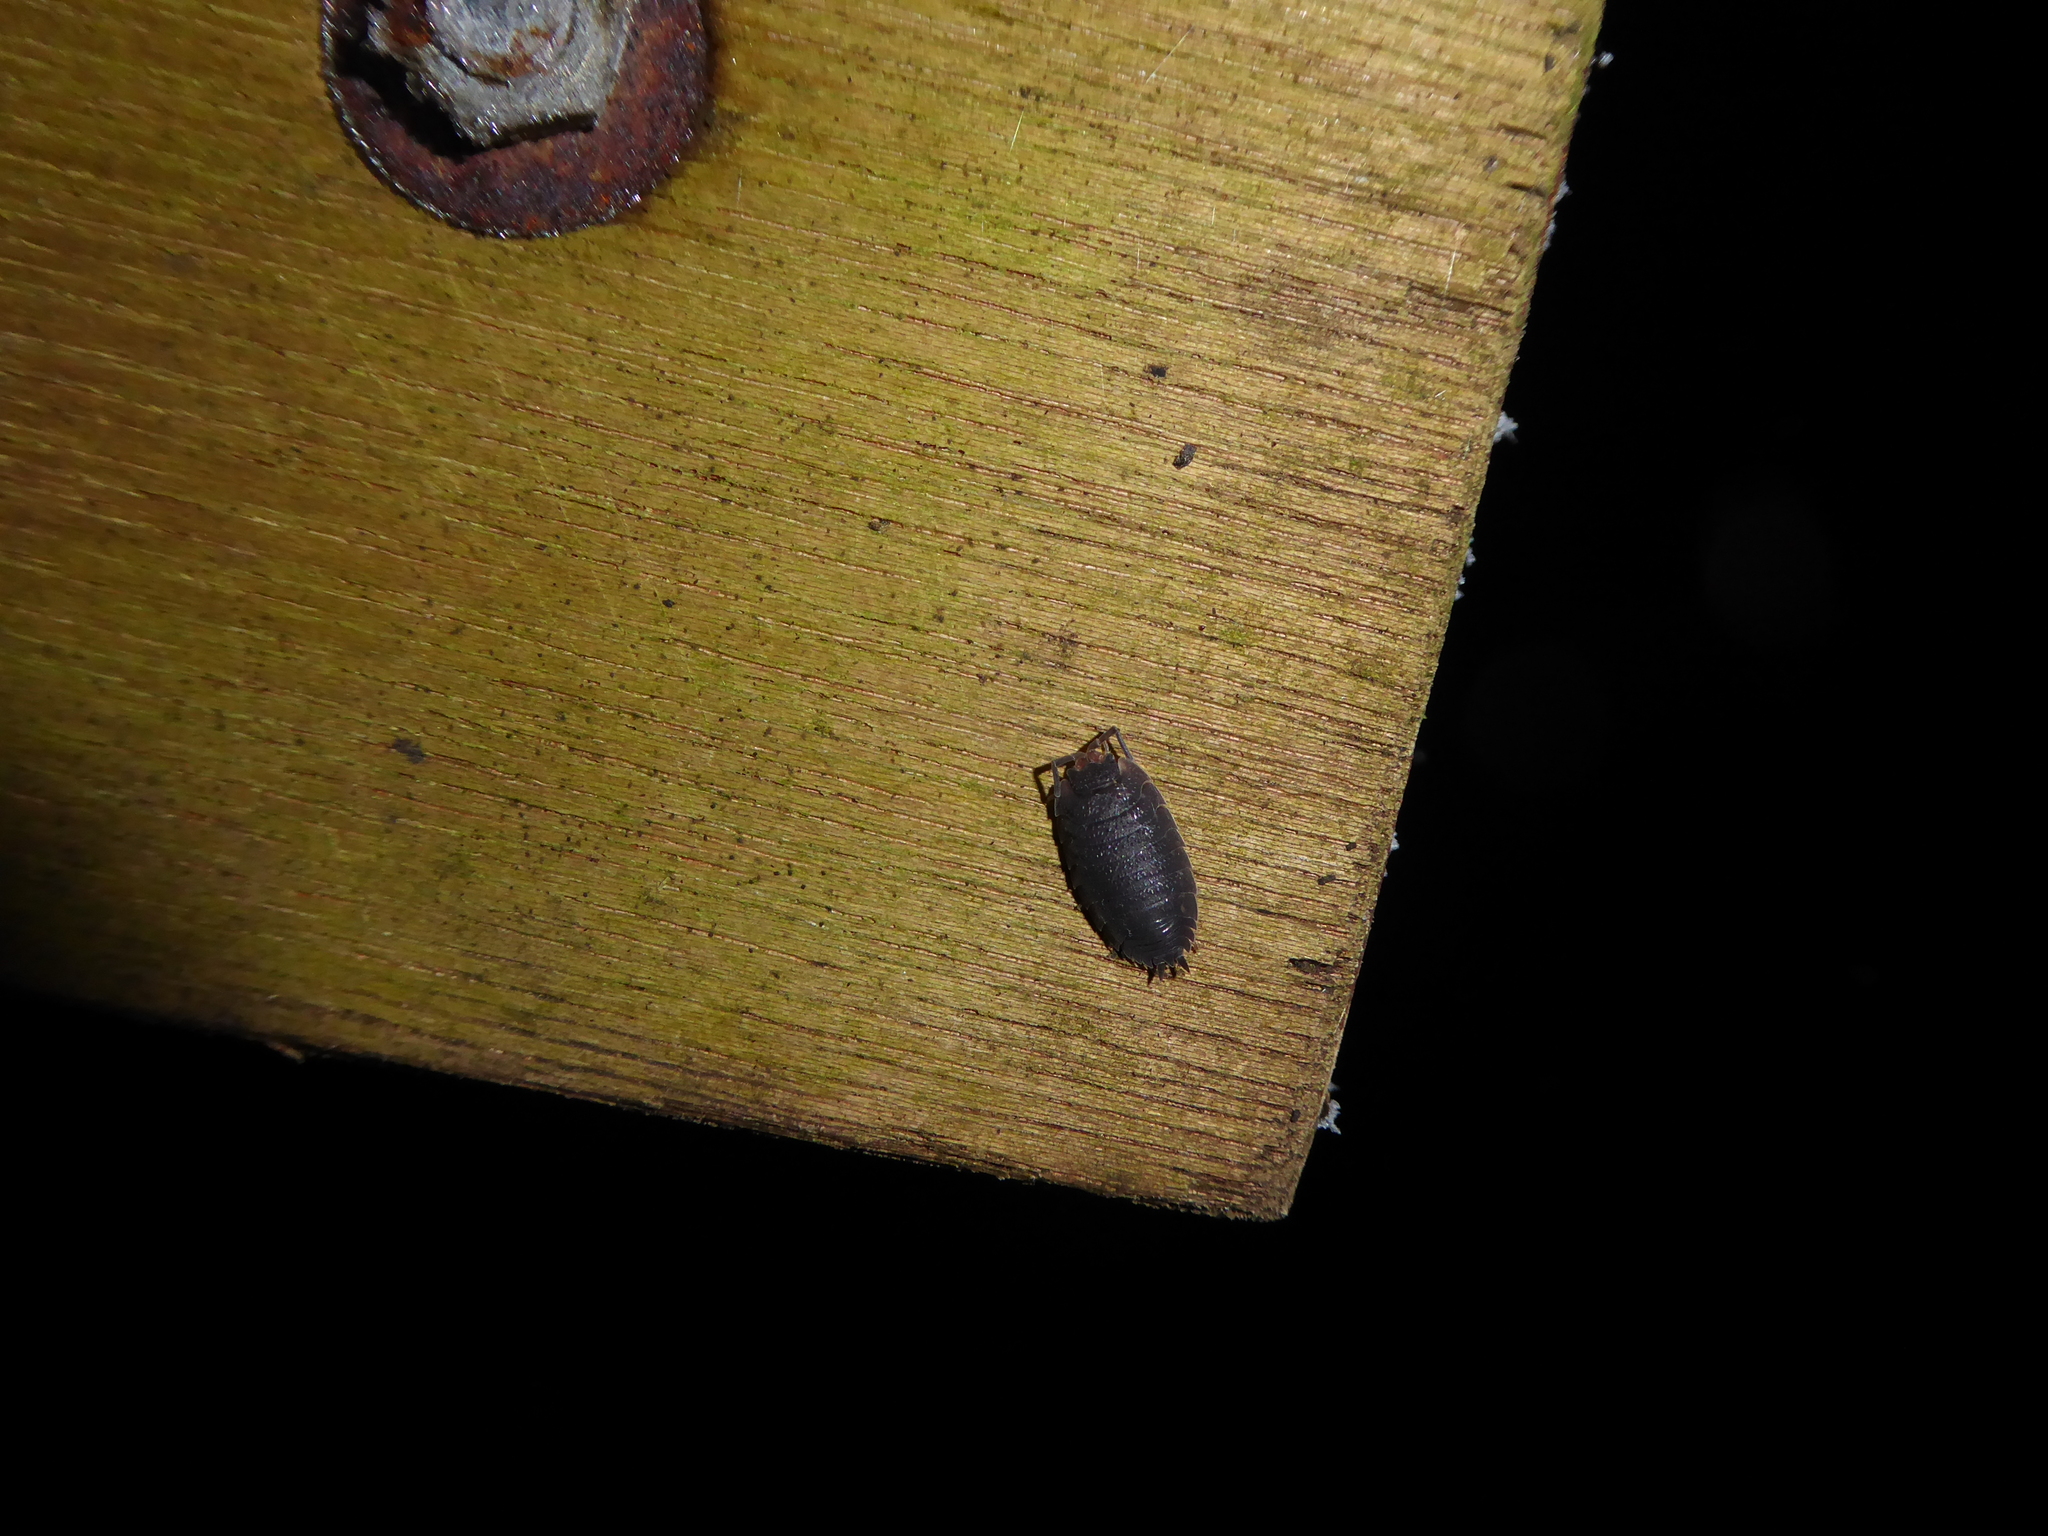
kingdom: Animalia
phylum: Arthropoda
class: Malacostraca
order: Isopoda
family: Porcellionidae
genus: Porcellio
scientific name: Porcellio scaber
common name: Common rough woodlouse
